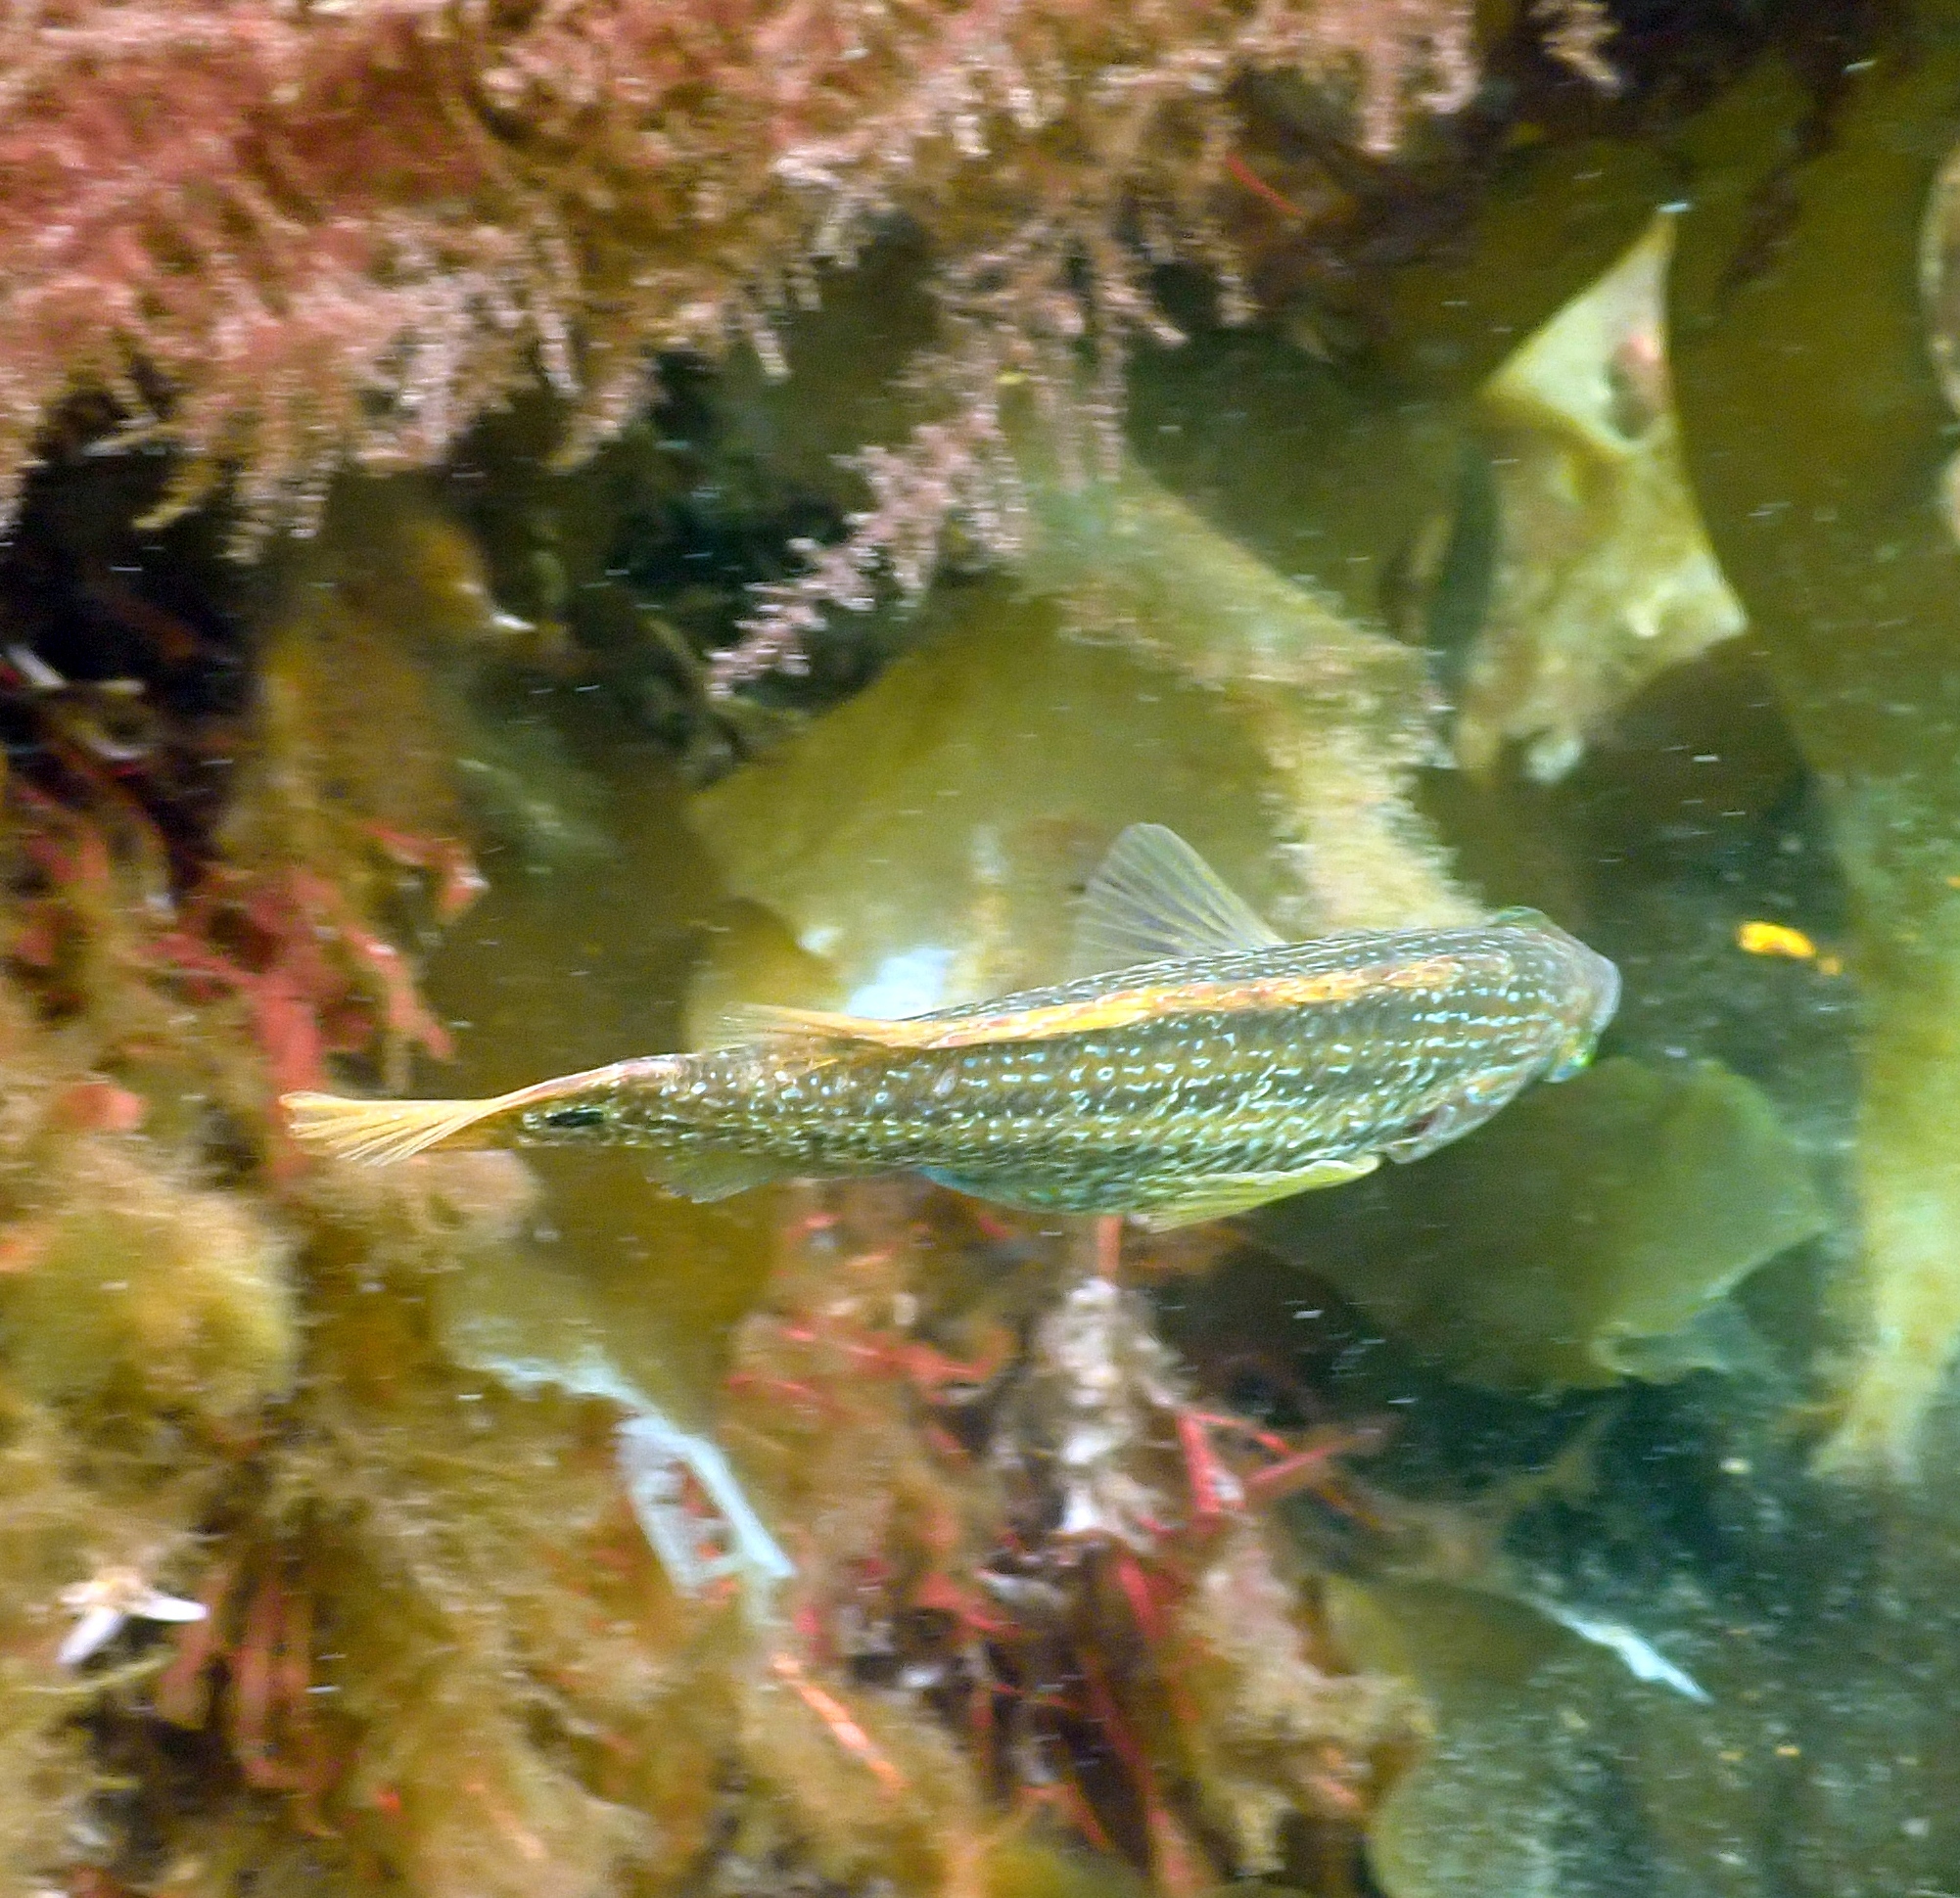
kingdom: Animalia
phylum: Chordata
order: Perciformes
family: Labridae
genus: Symphodus
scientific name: Symphodus melops
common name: Corkwing
